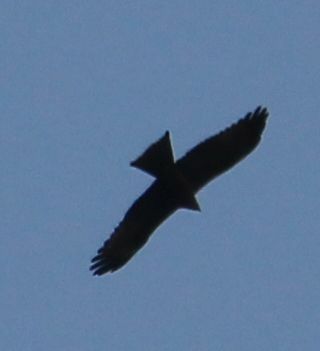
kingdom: Animalia
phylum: Chordata
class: Aves
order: Accipitriformes
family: Accipitridae
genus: Milvus
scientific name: Milvus migrans
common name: Black kite
